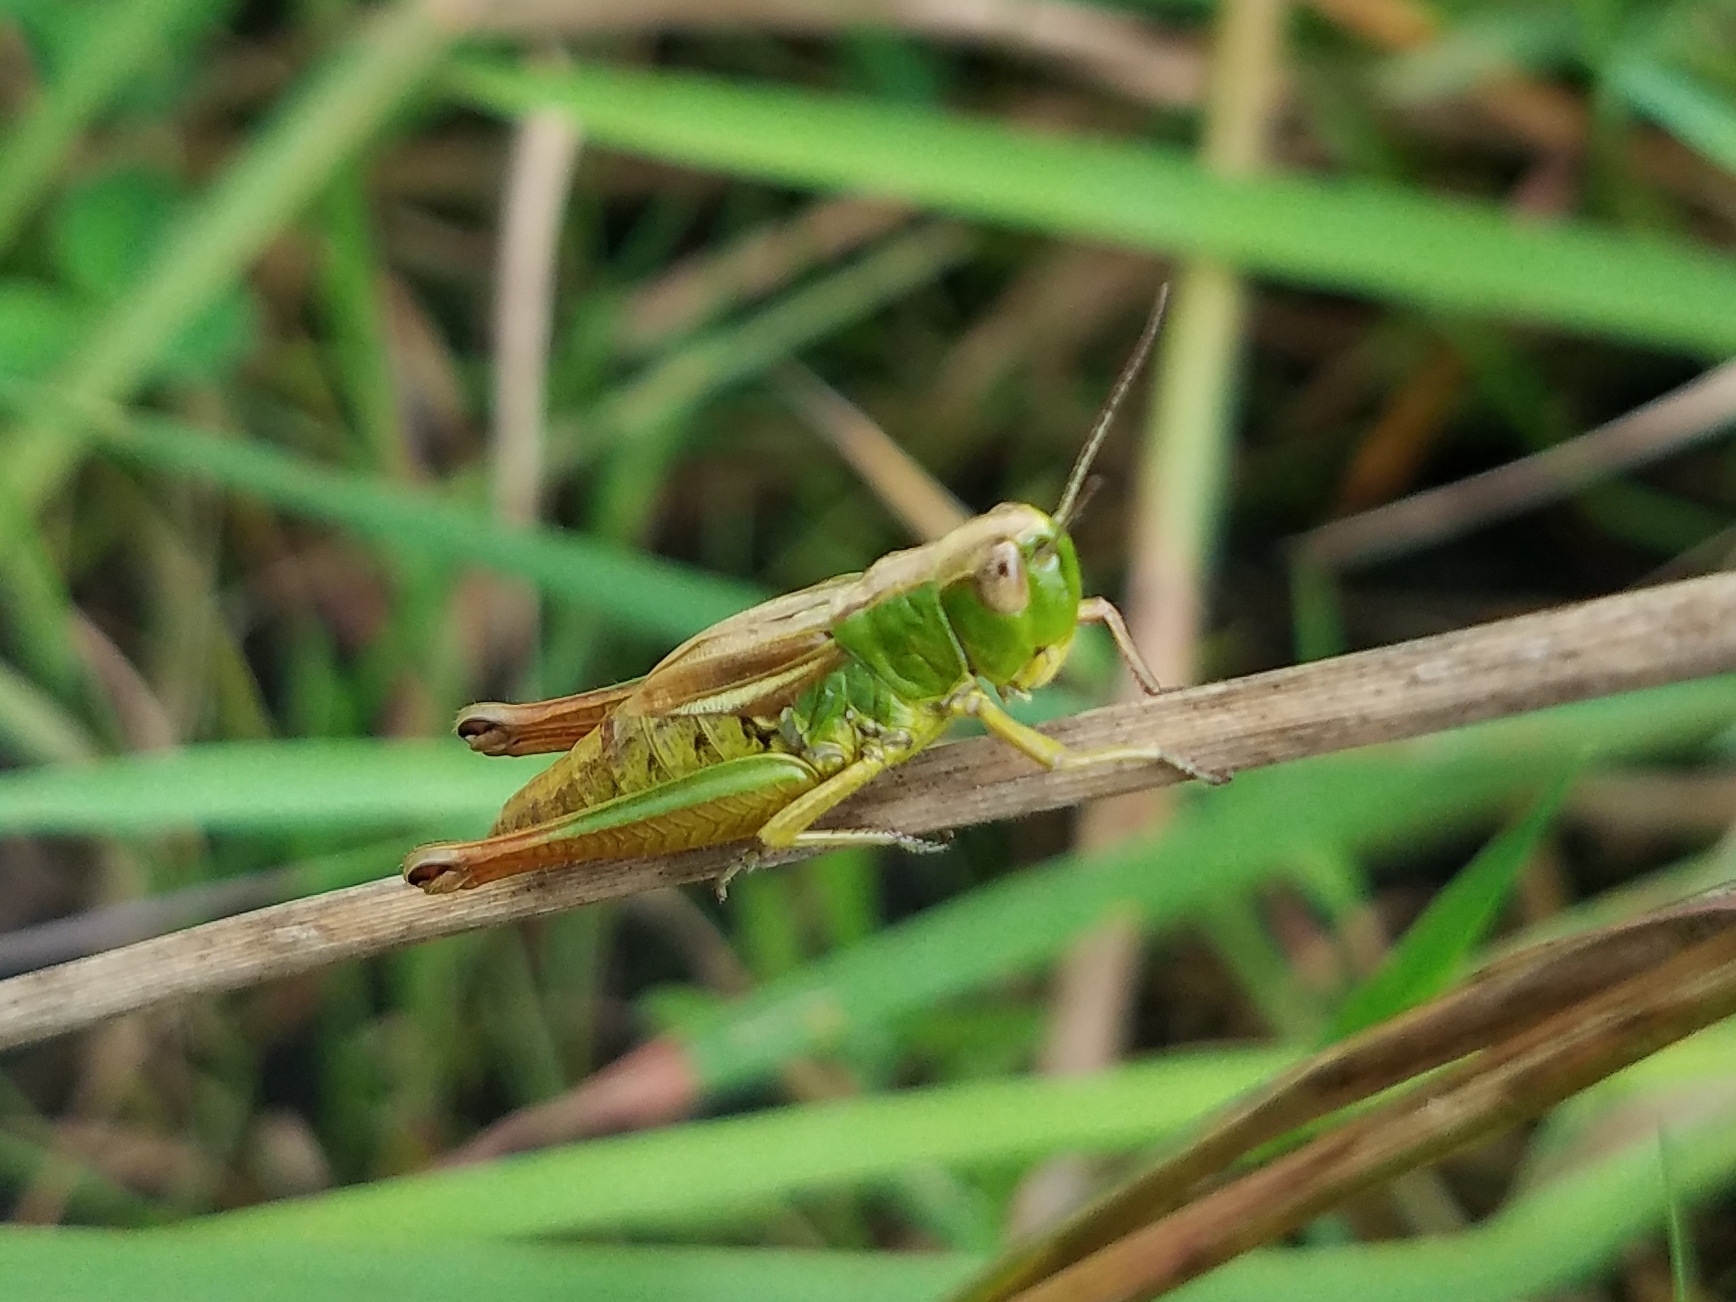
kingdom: Animalia
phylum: Arthropoda
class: Insecta
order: Orthoptera
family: Acrididae
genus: Pseudochorthippus
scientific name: Pseudochorthippus parallelus
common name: Meadow grasshopper
